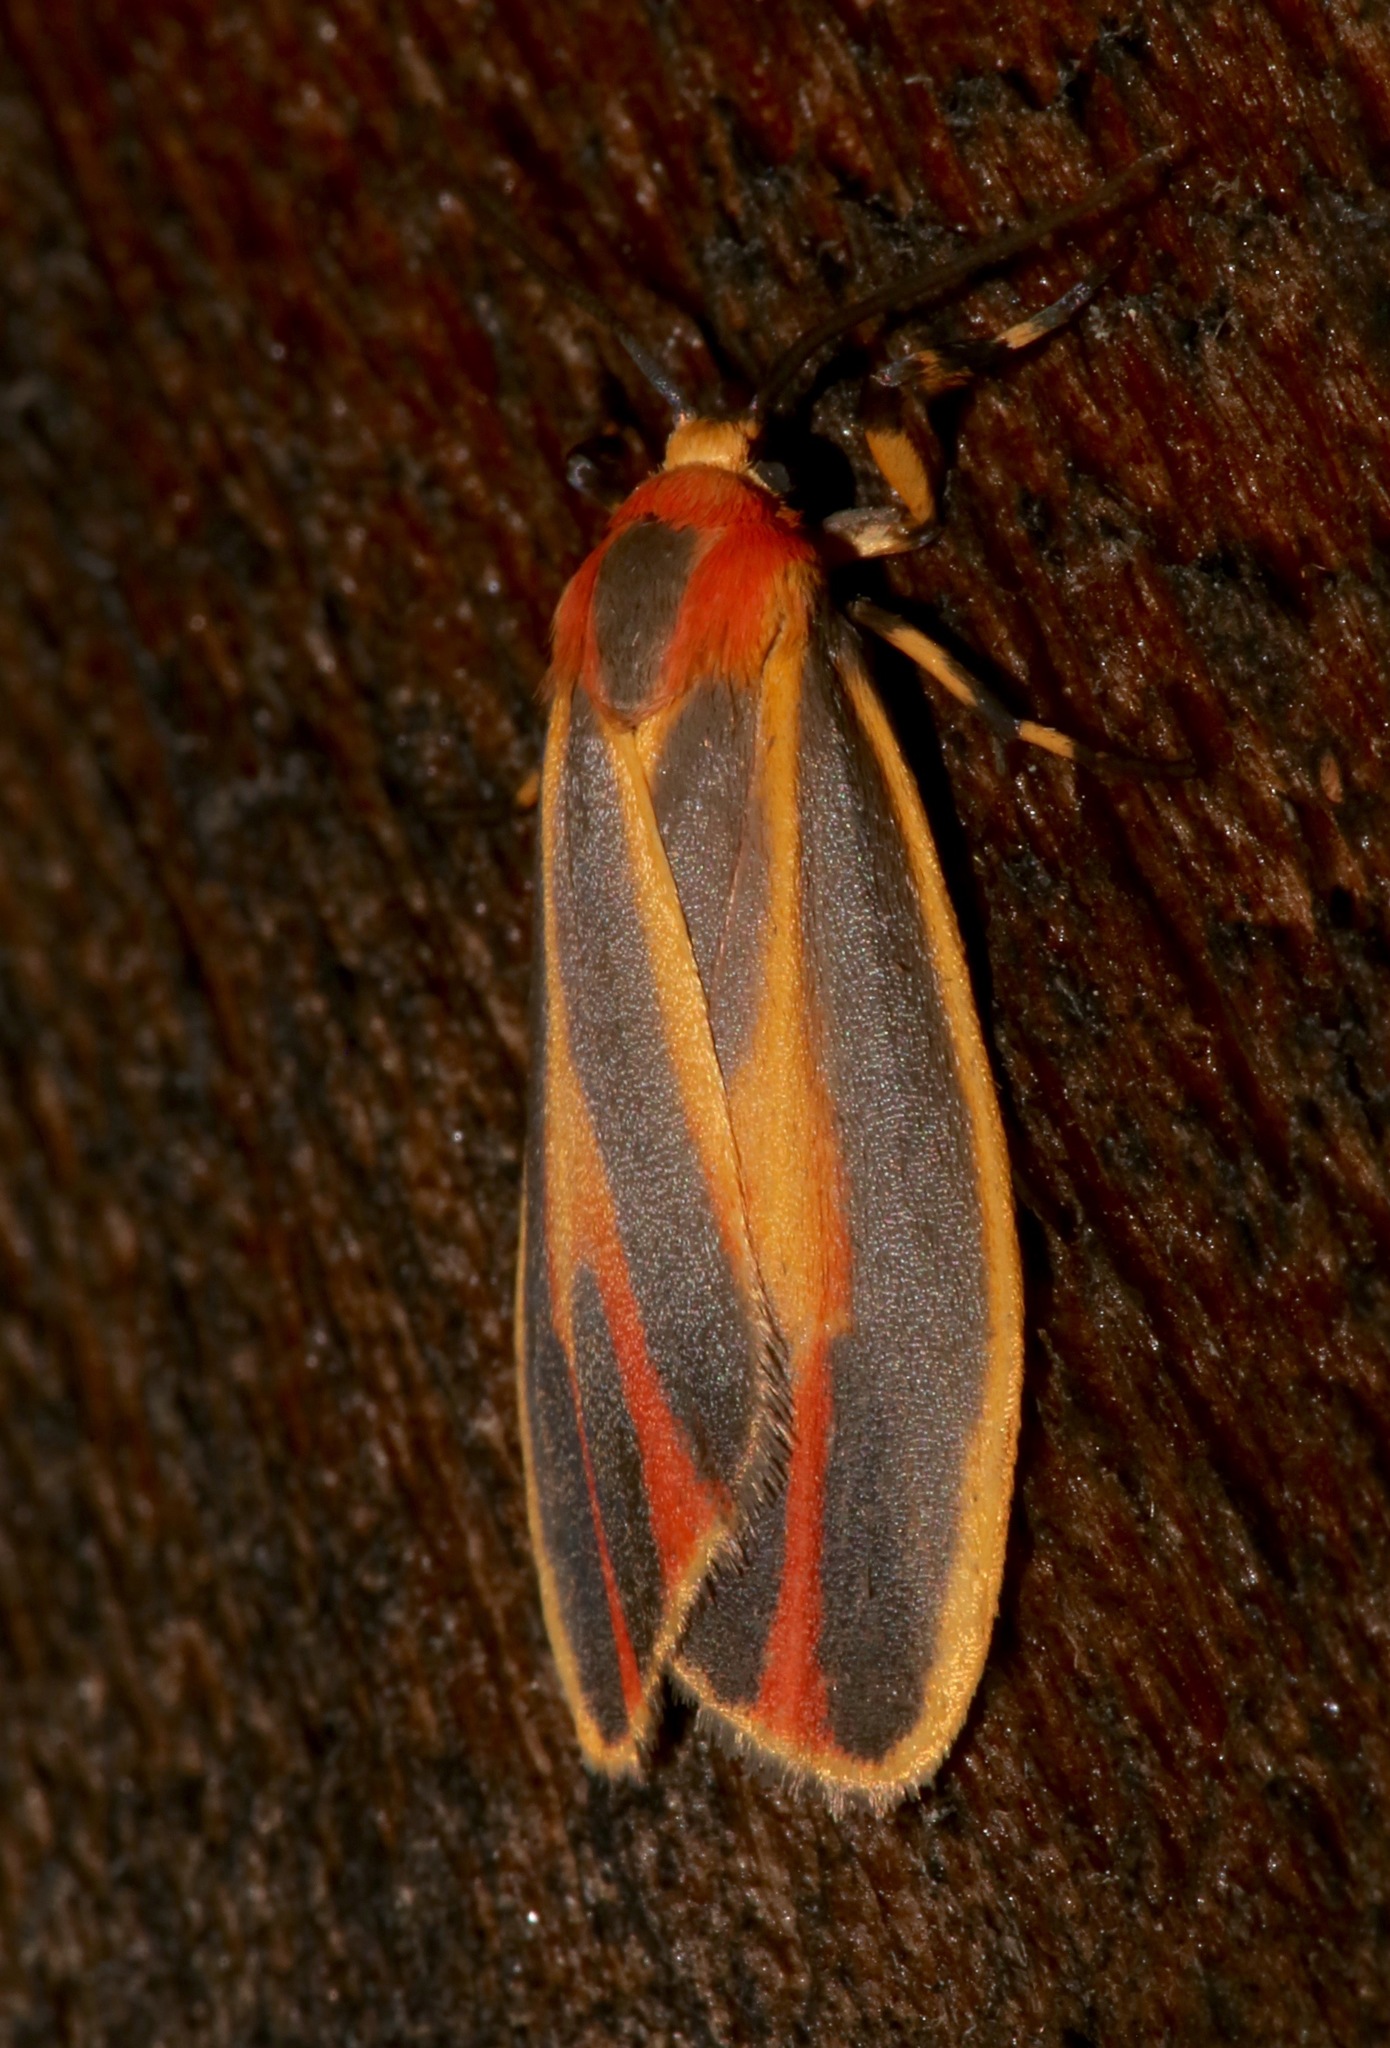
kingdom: Animalia
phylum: Arthropoda
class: Insecta
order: Lepidoptera
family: Erebidae
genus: Hypoprepia
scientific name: Hypoprepia fucosa
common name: Painted lichen moth
